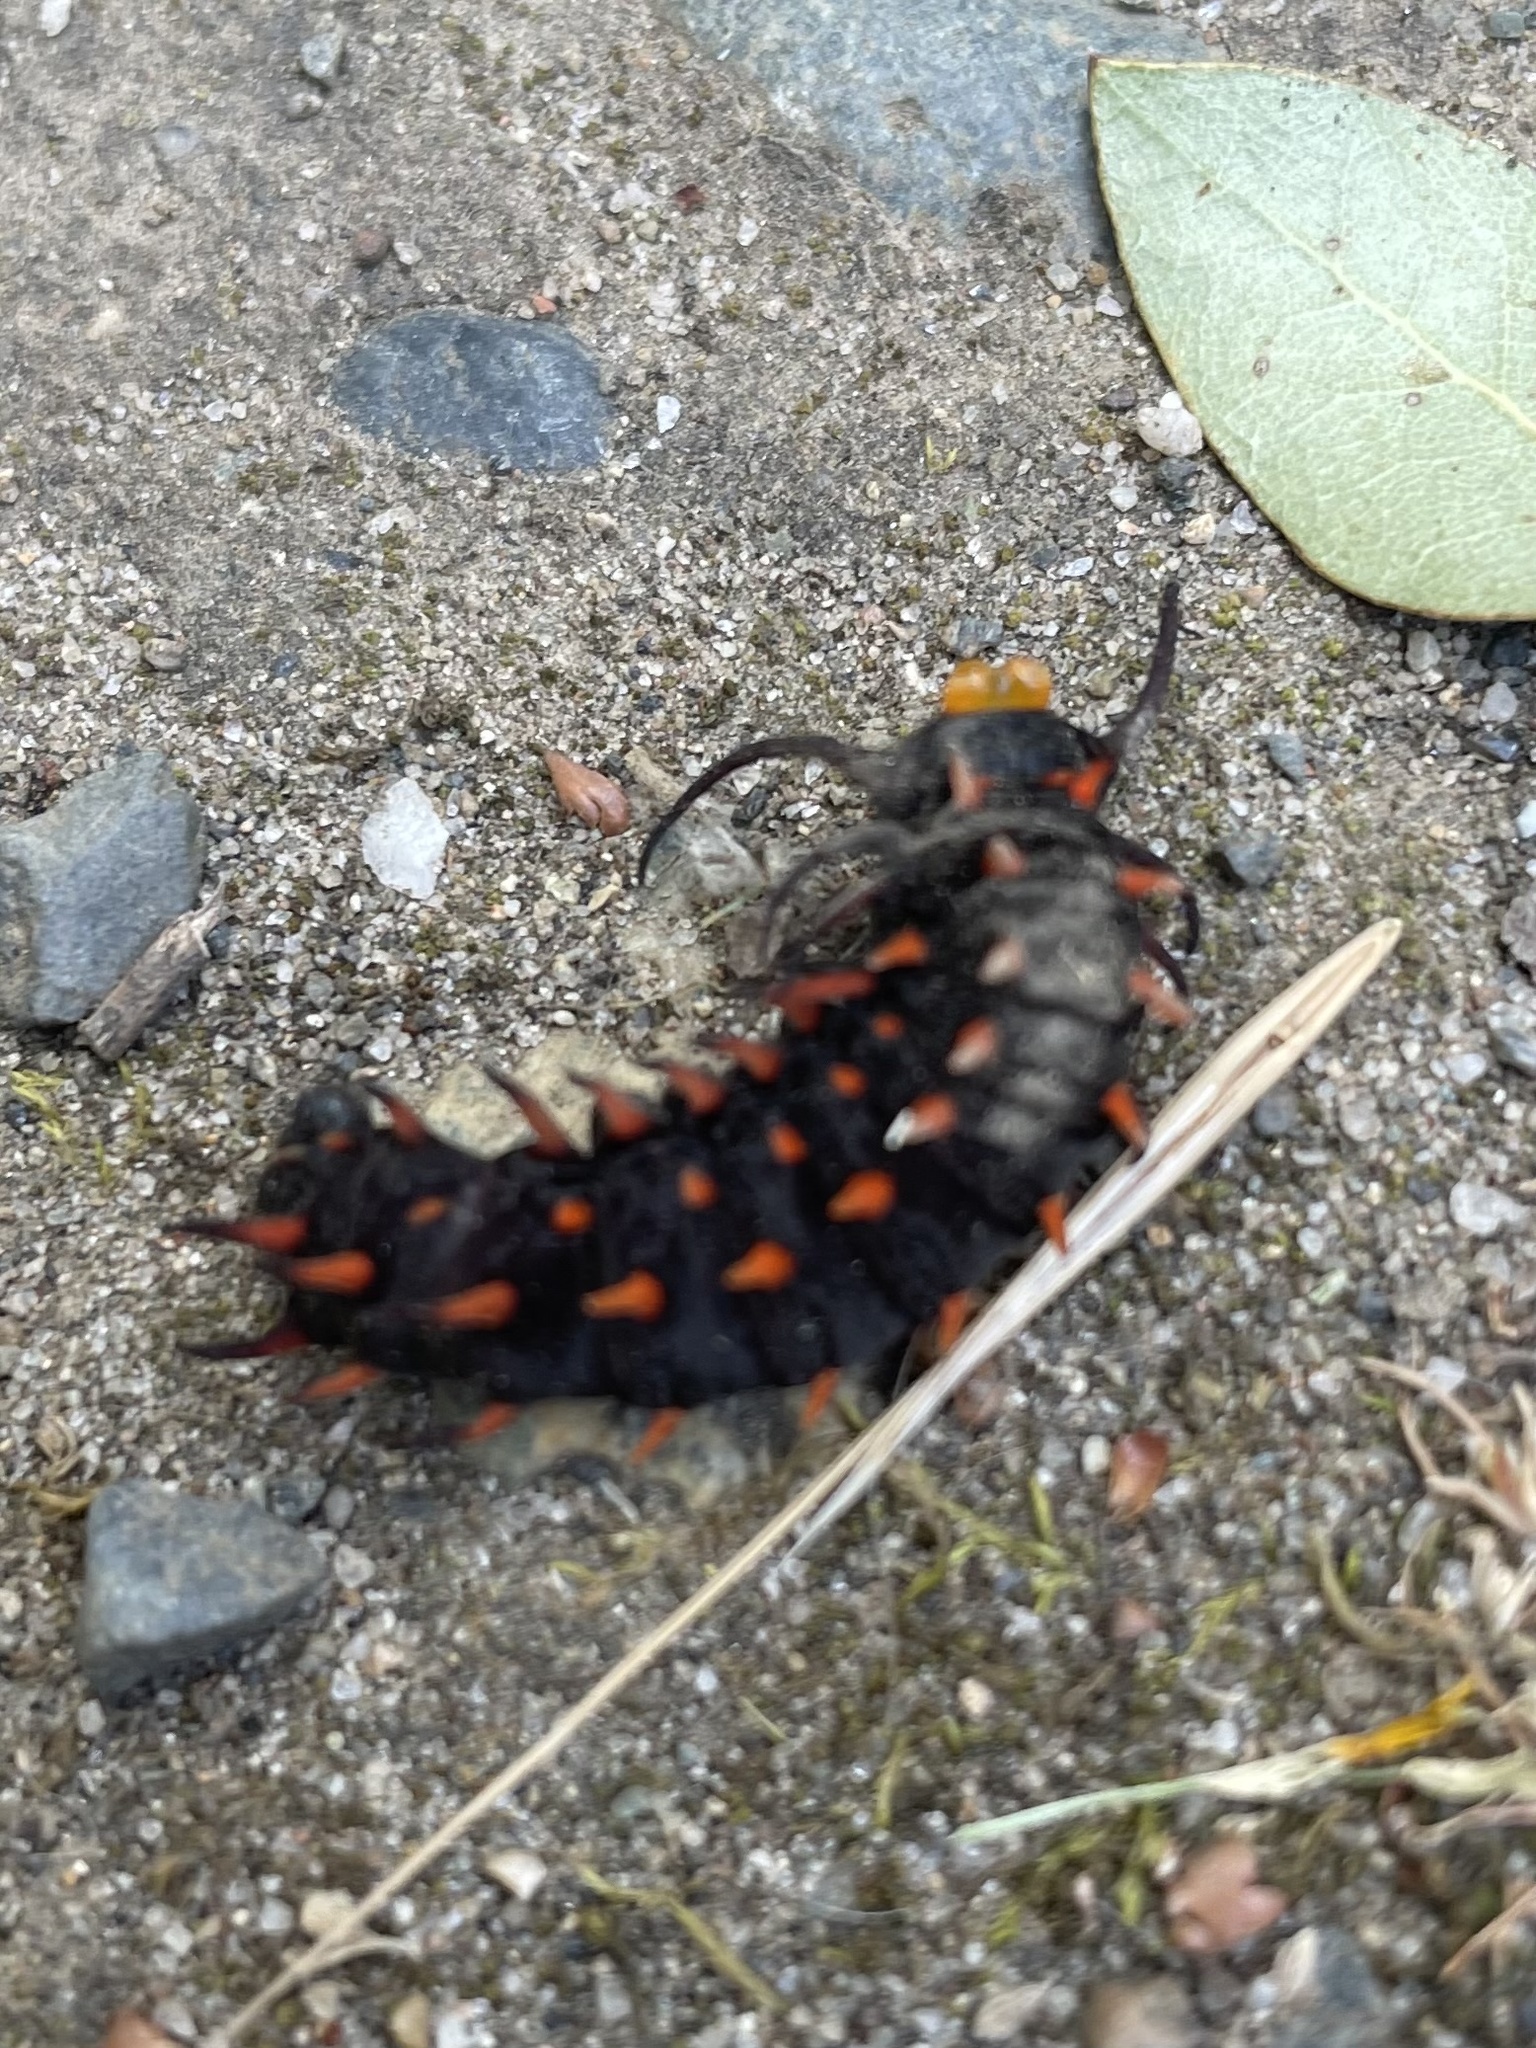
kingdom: Animalia
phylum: Arthropoda
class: Insecta
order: Lepidoptera
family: Papilionidae
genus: Battus
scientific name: Battus philenor
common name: Pipevine swallowtail
